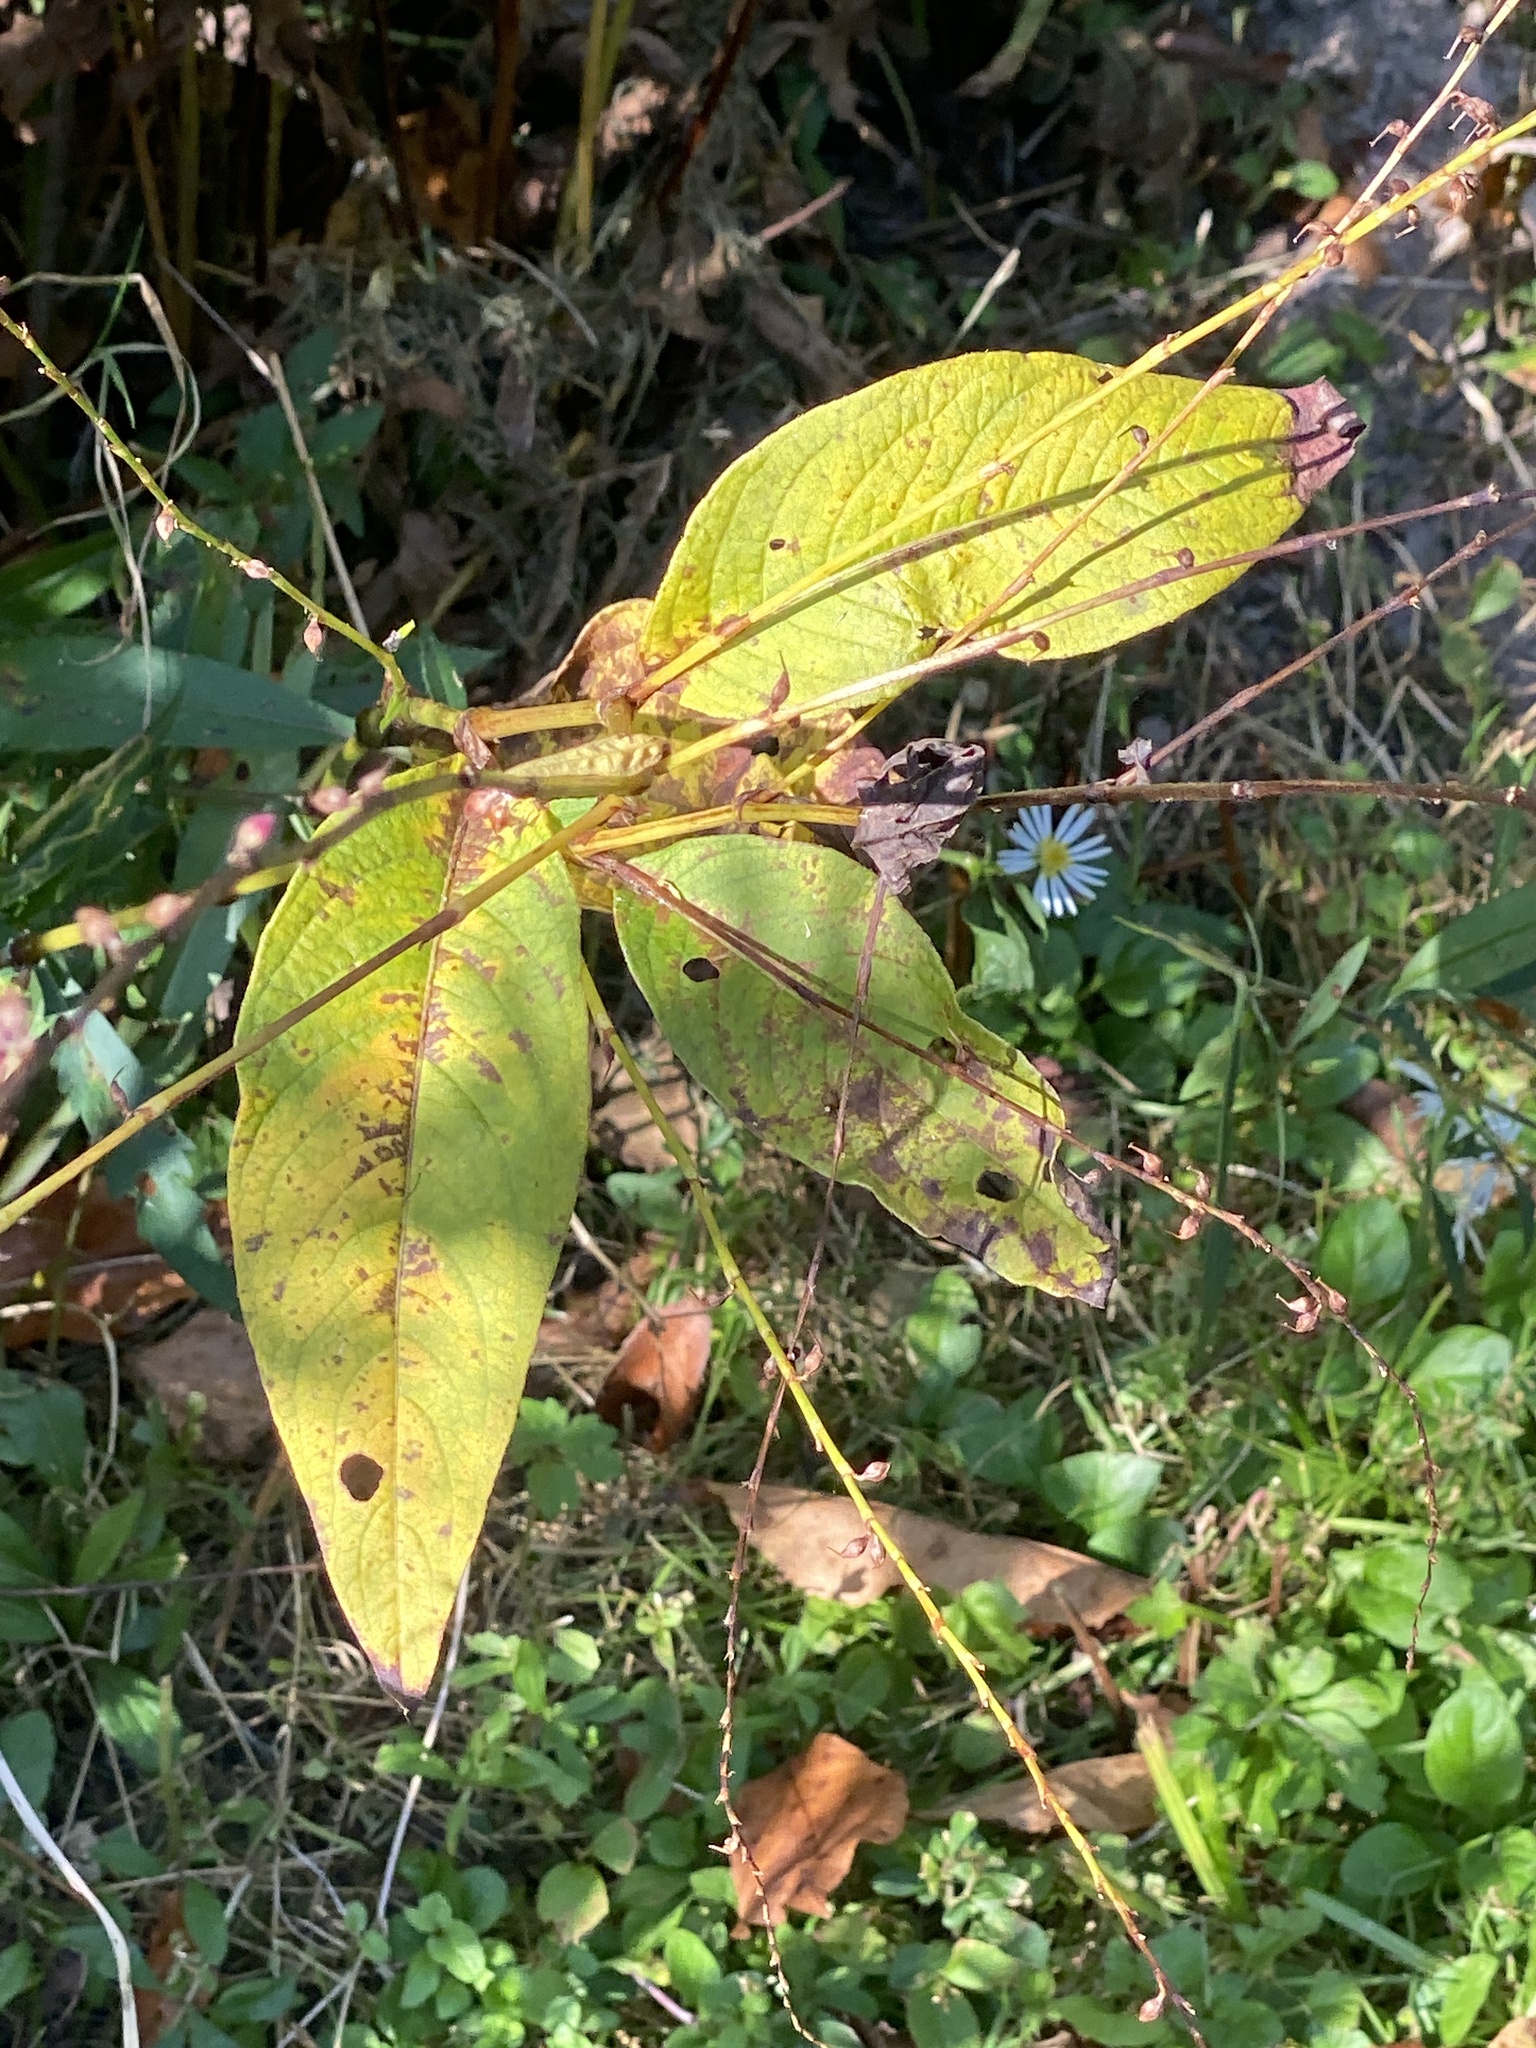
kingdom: Plantae
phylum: Tracheophyta
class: Magnoliopsida
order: Caryophyllales
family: Polygonaceae
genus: Persicaria
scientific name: Persicaria virginiana
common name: Jumpseed
